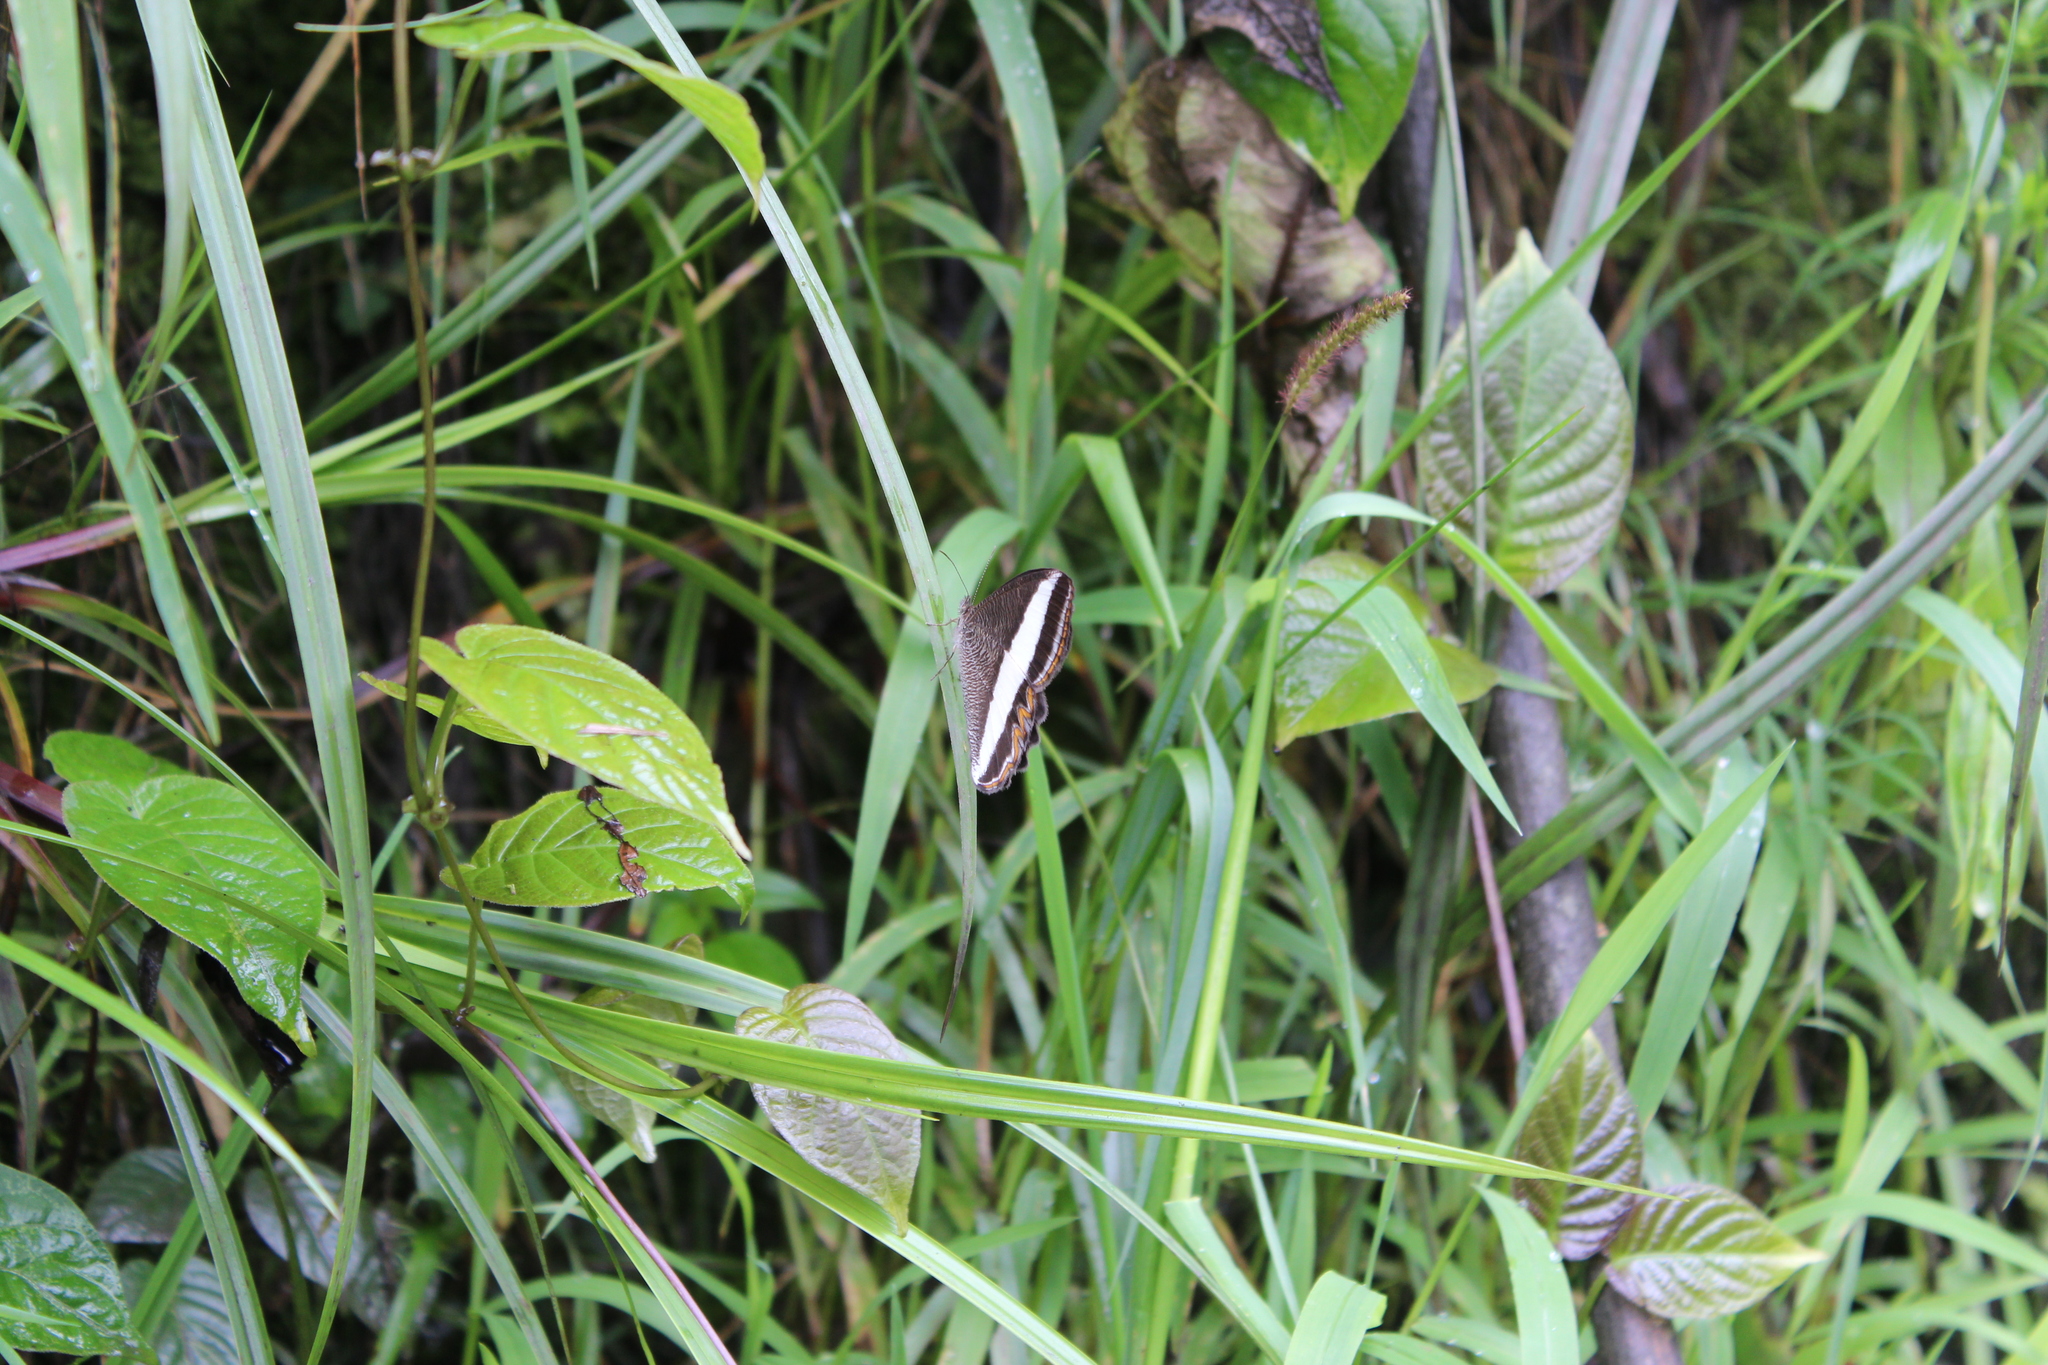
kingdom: Animalia
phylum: Arthropoda
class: Insecta
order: Lepidoptera
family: Nymphalidae
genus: Oressinoma
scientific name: Oressinoma typhla
